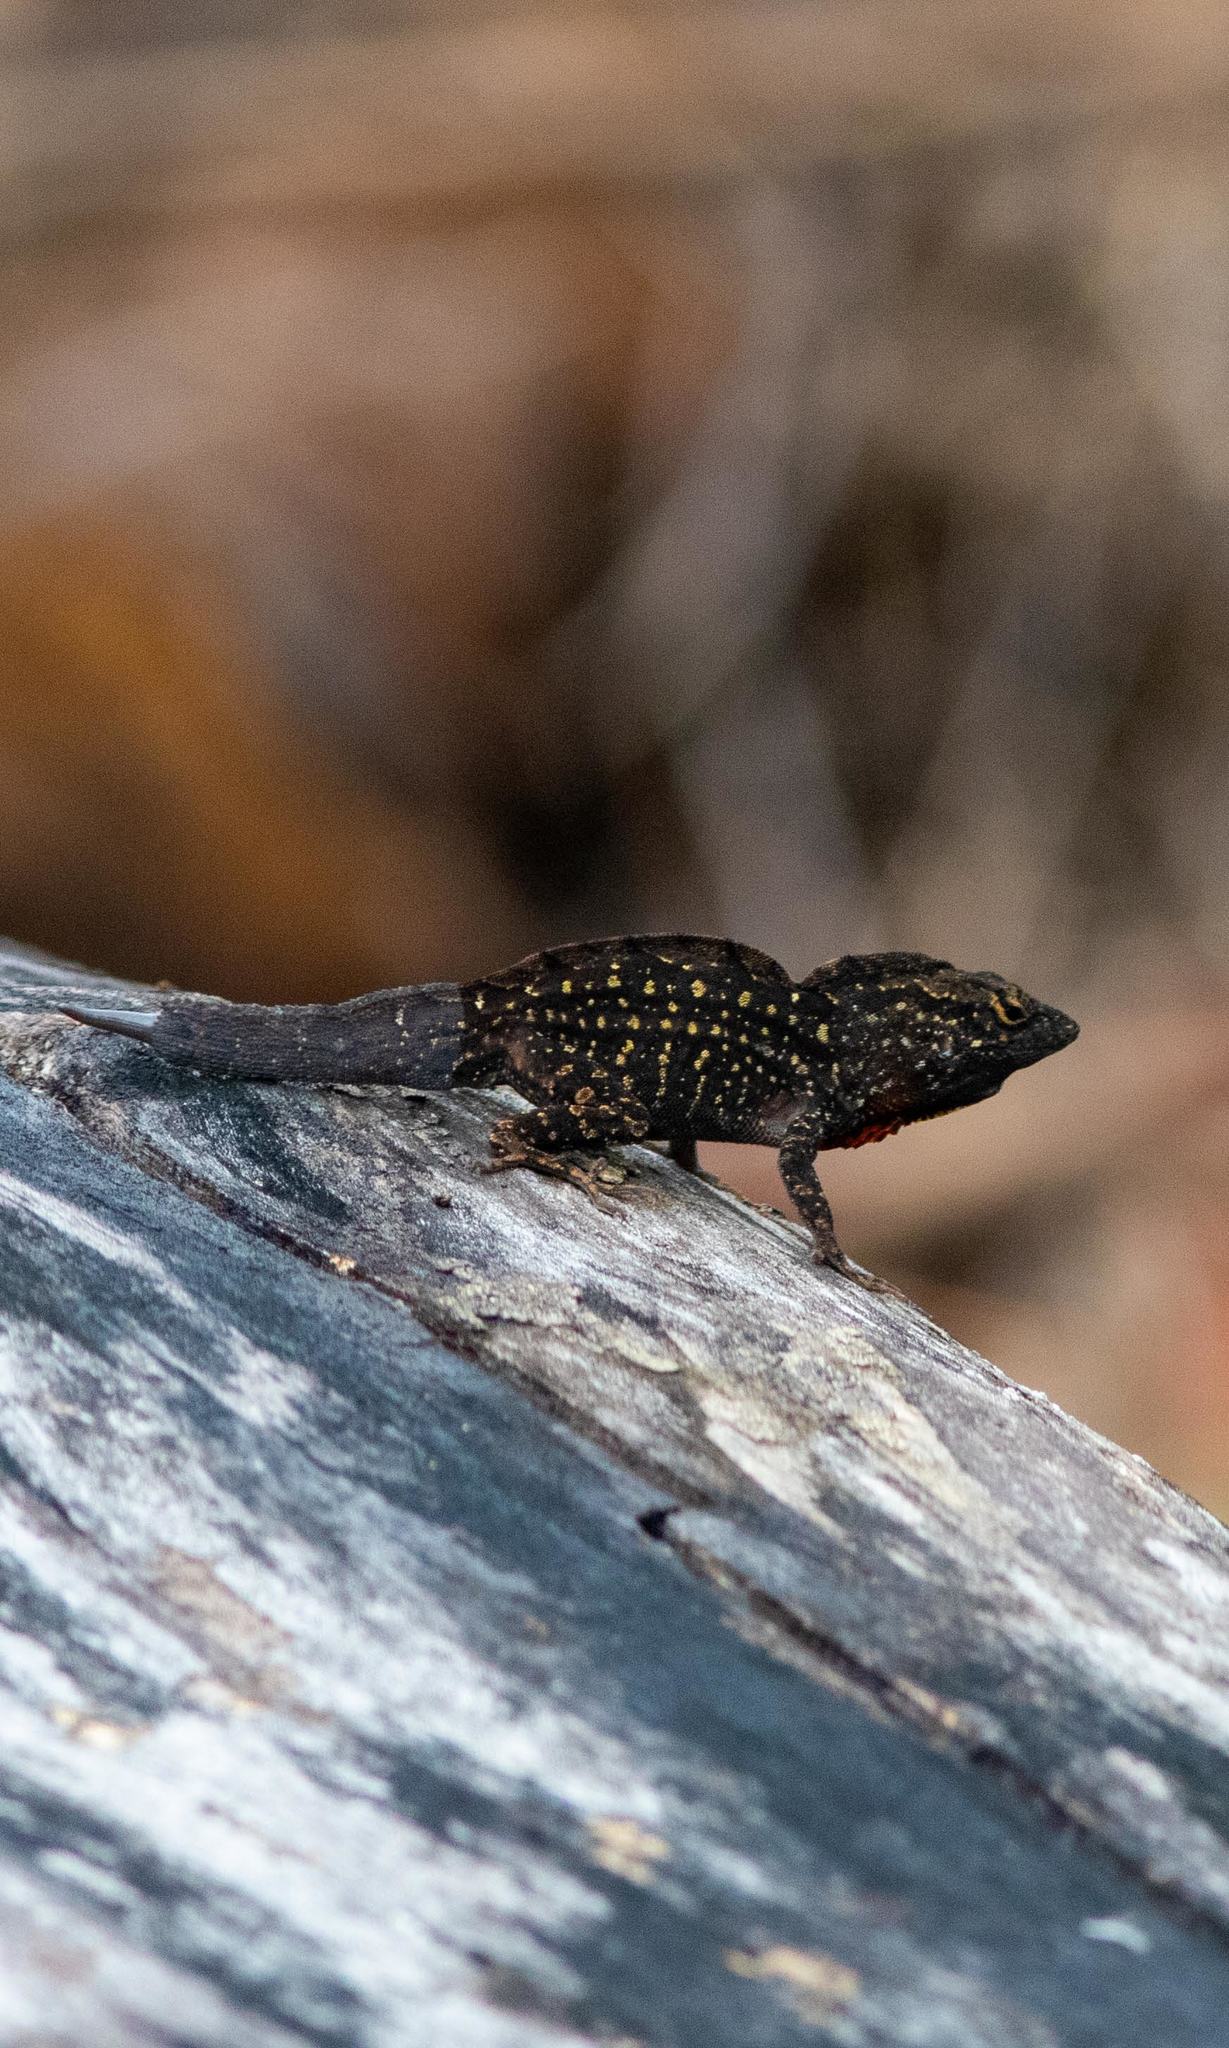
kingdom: Animalia
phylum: Chordata
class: Squamata
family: Dactyloidae
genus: Anolis
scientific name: Anolis sagrei
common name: Brown anole
